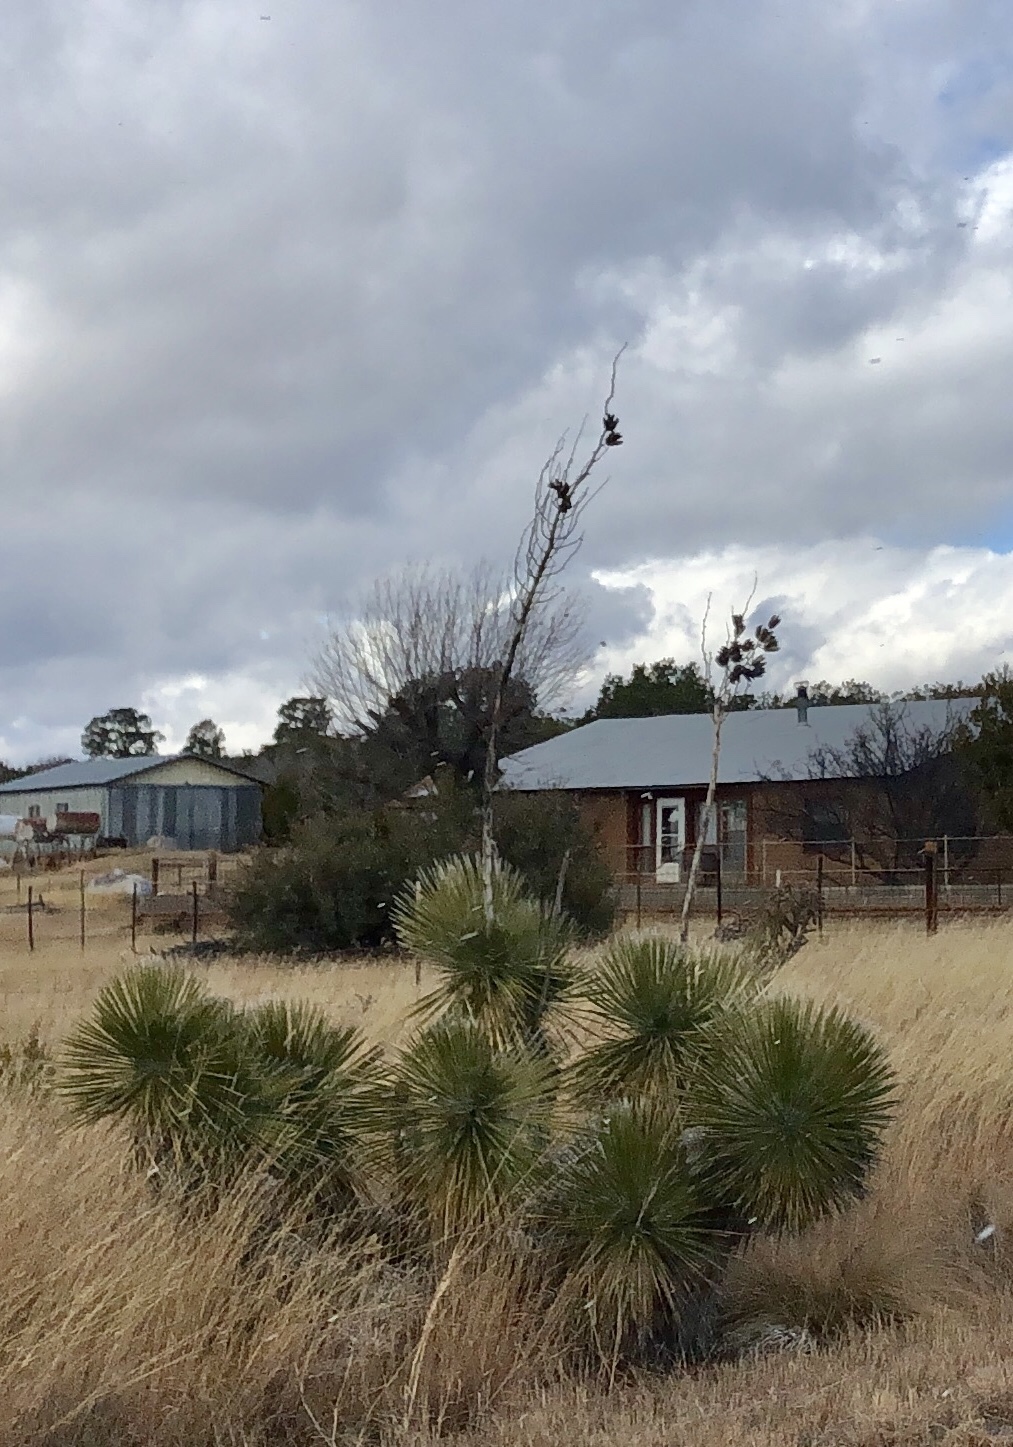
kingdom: Plantae
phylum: Tracheophyta
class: Liliopsida
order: Asparagales
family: Asparagaceae
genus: Yucca
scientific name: Yucca elata
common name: Palmella
